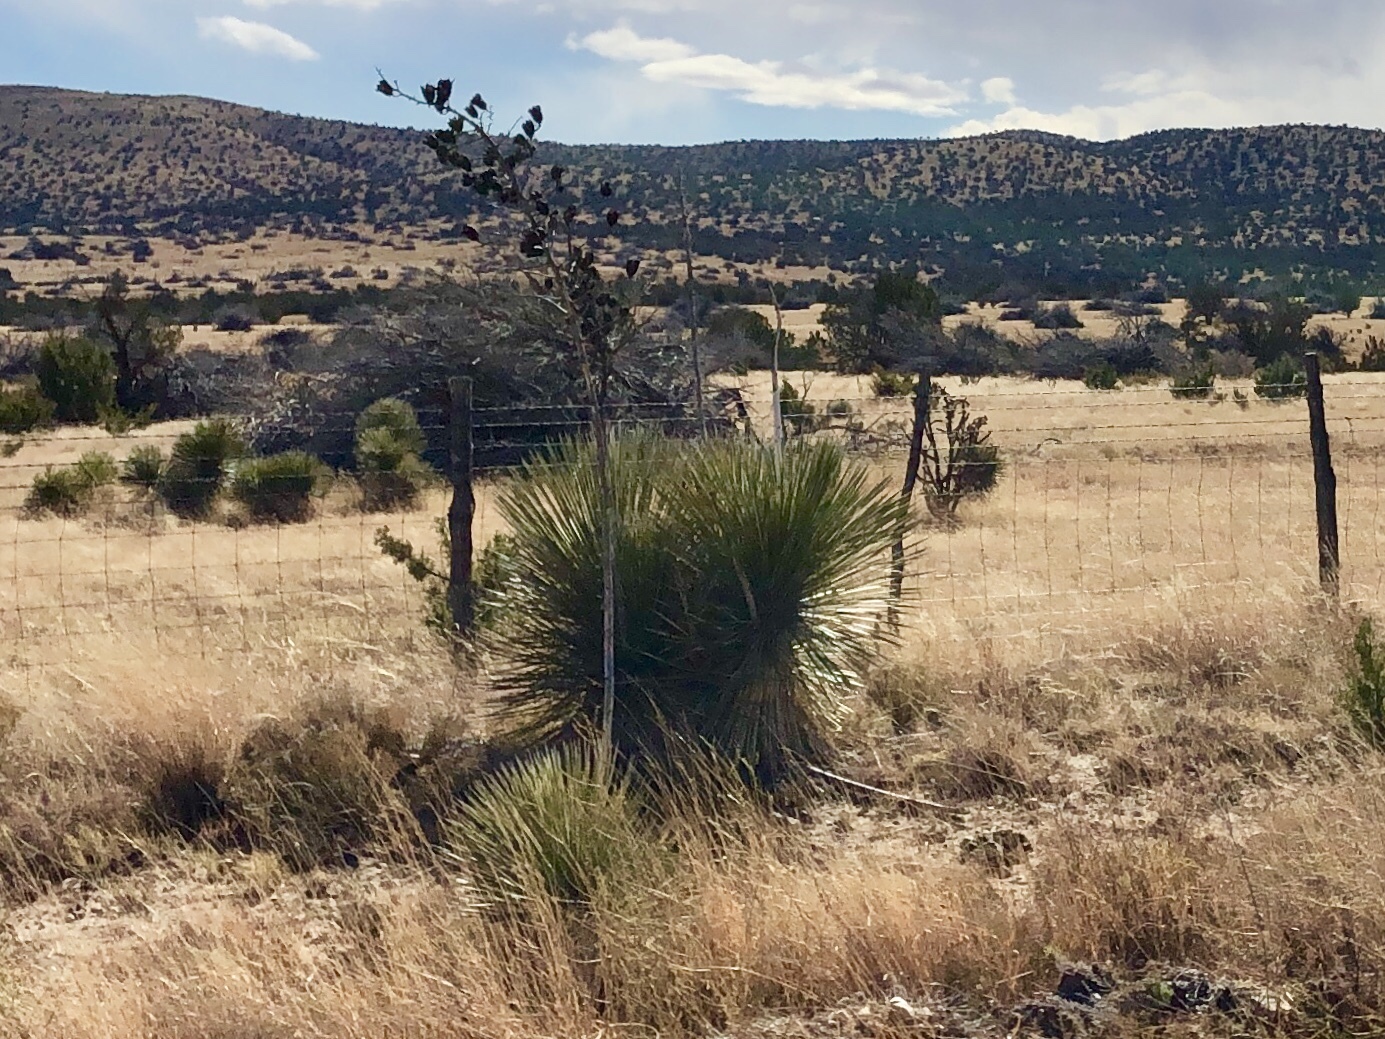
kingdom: Plantae
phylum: Tracheophyta
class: Liliopsida
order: Asparagales
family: Asparagaceae
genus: Yucca
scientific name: Yucca elata
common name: Palmella
